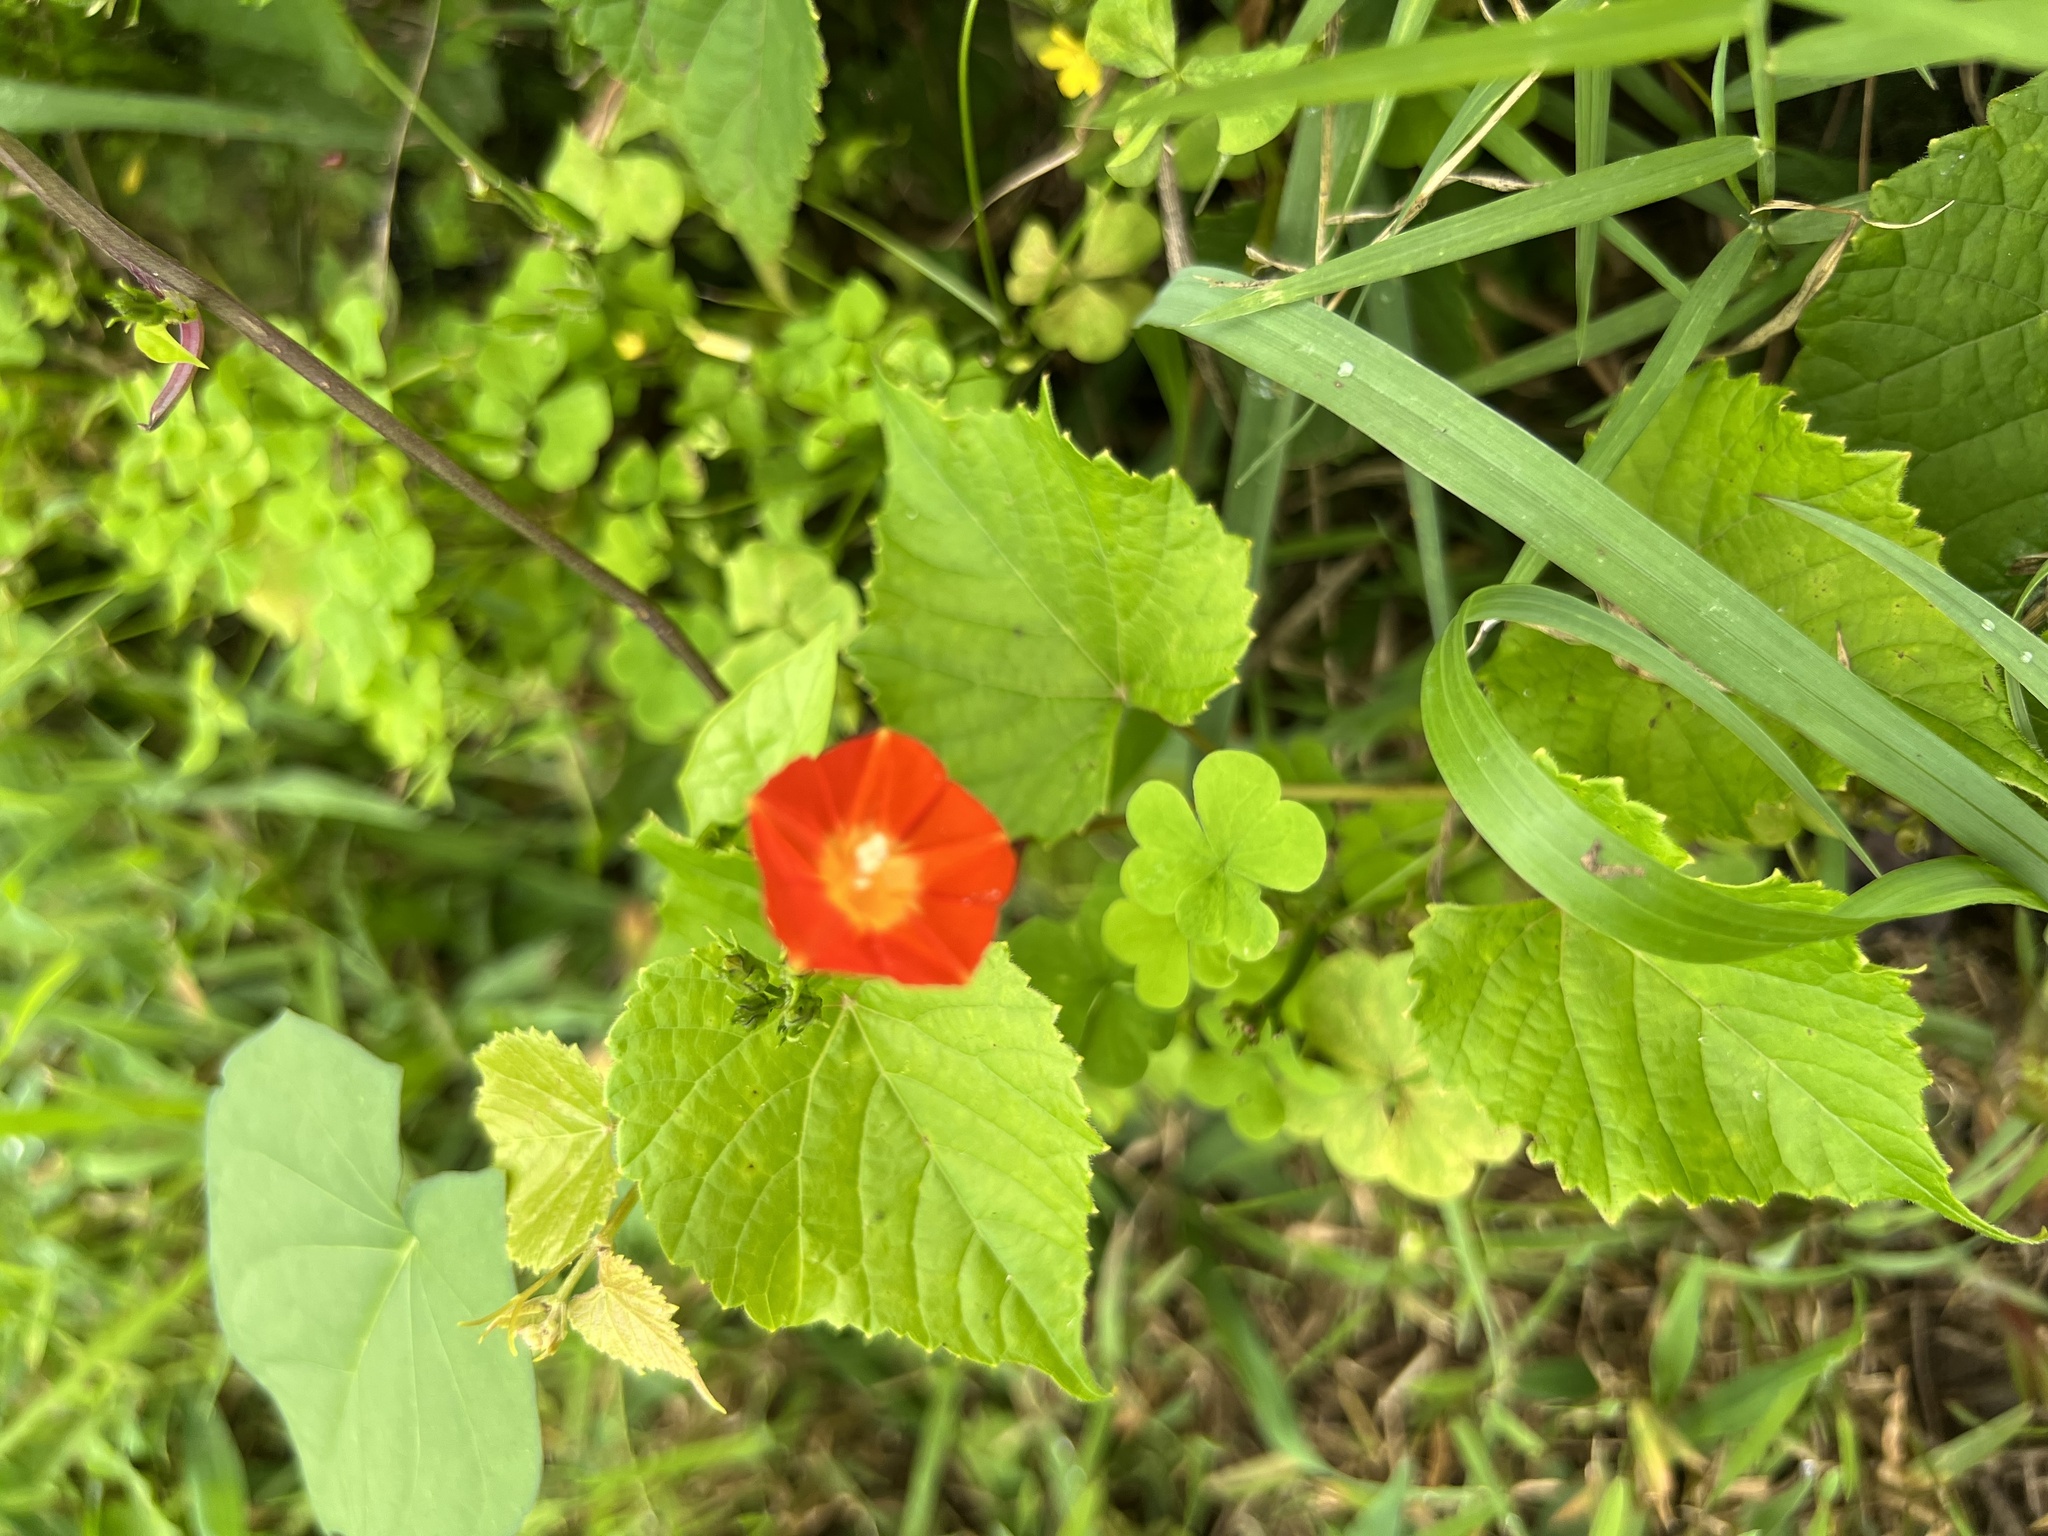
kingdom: Plantae
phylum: Tracheophyta
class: Magnoliopsida
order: Solanales
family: Convolvulaceae
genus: Ipomoea
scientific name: Ipomoea coccinea
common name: Red morning-glory
